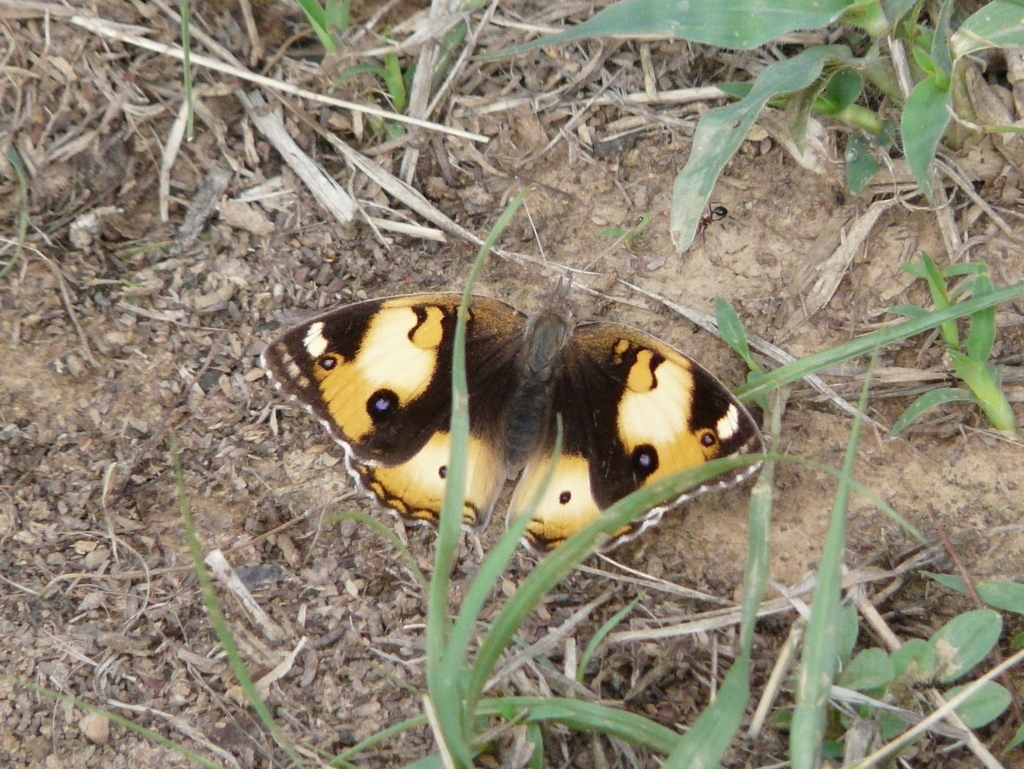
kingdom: Animalia
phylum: Arthropoda
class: Insecta
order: Lepidoptera
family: Nymphalidae
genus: Junonia
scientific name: Junonia hierta
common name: Yellow pansy
